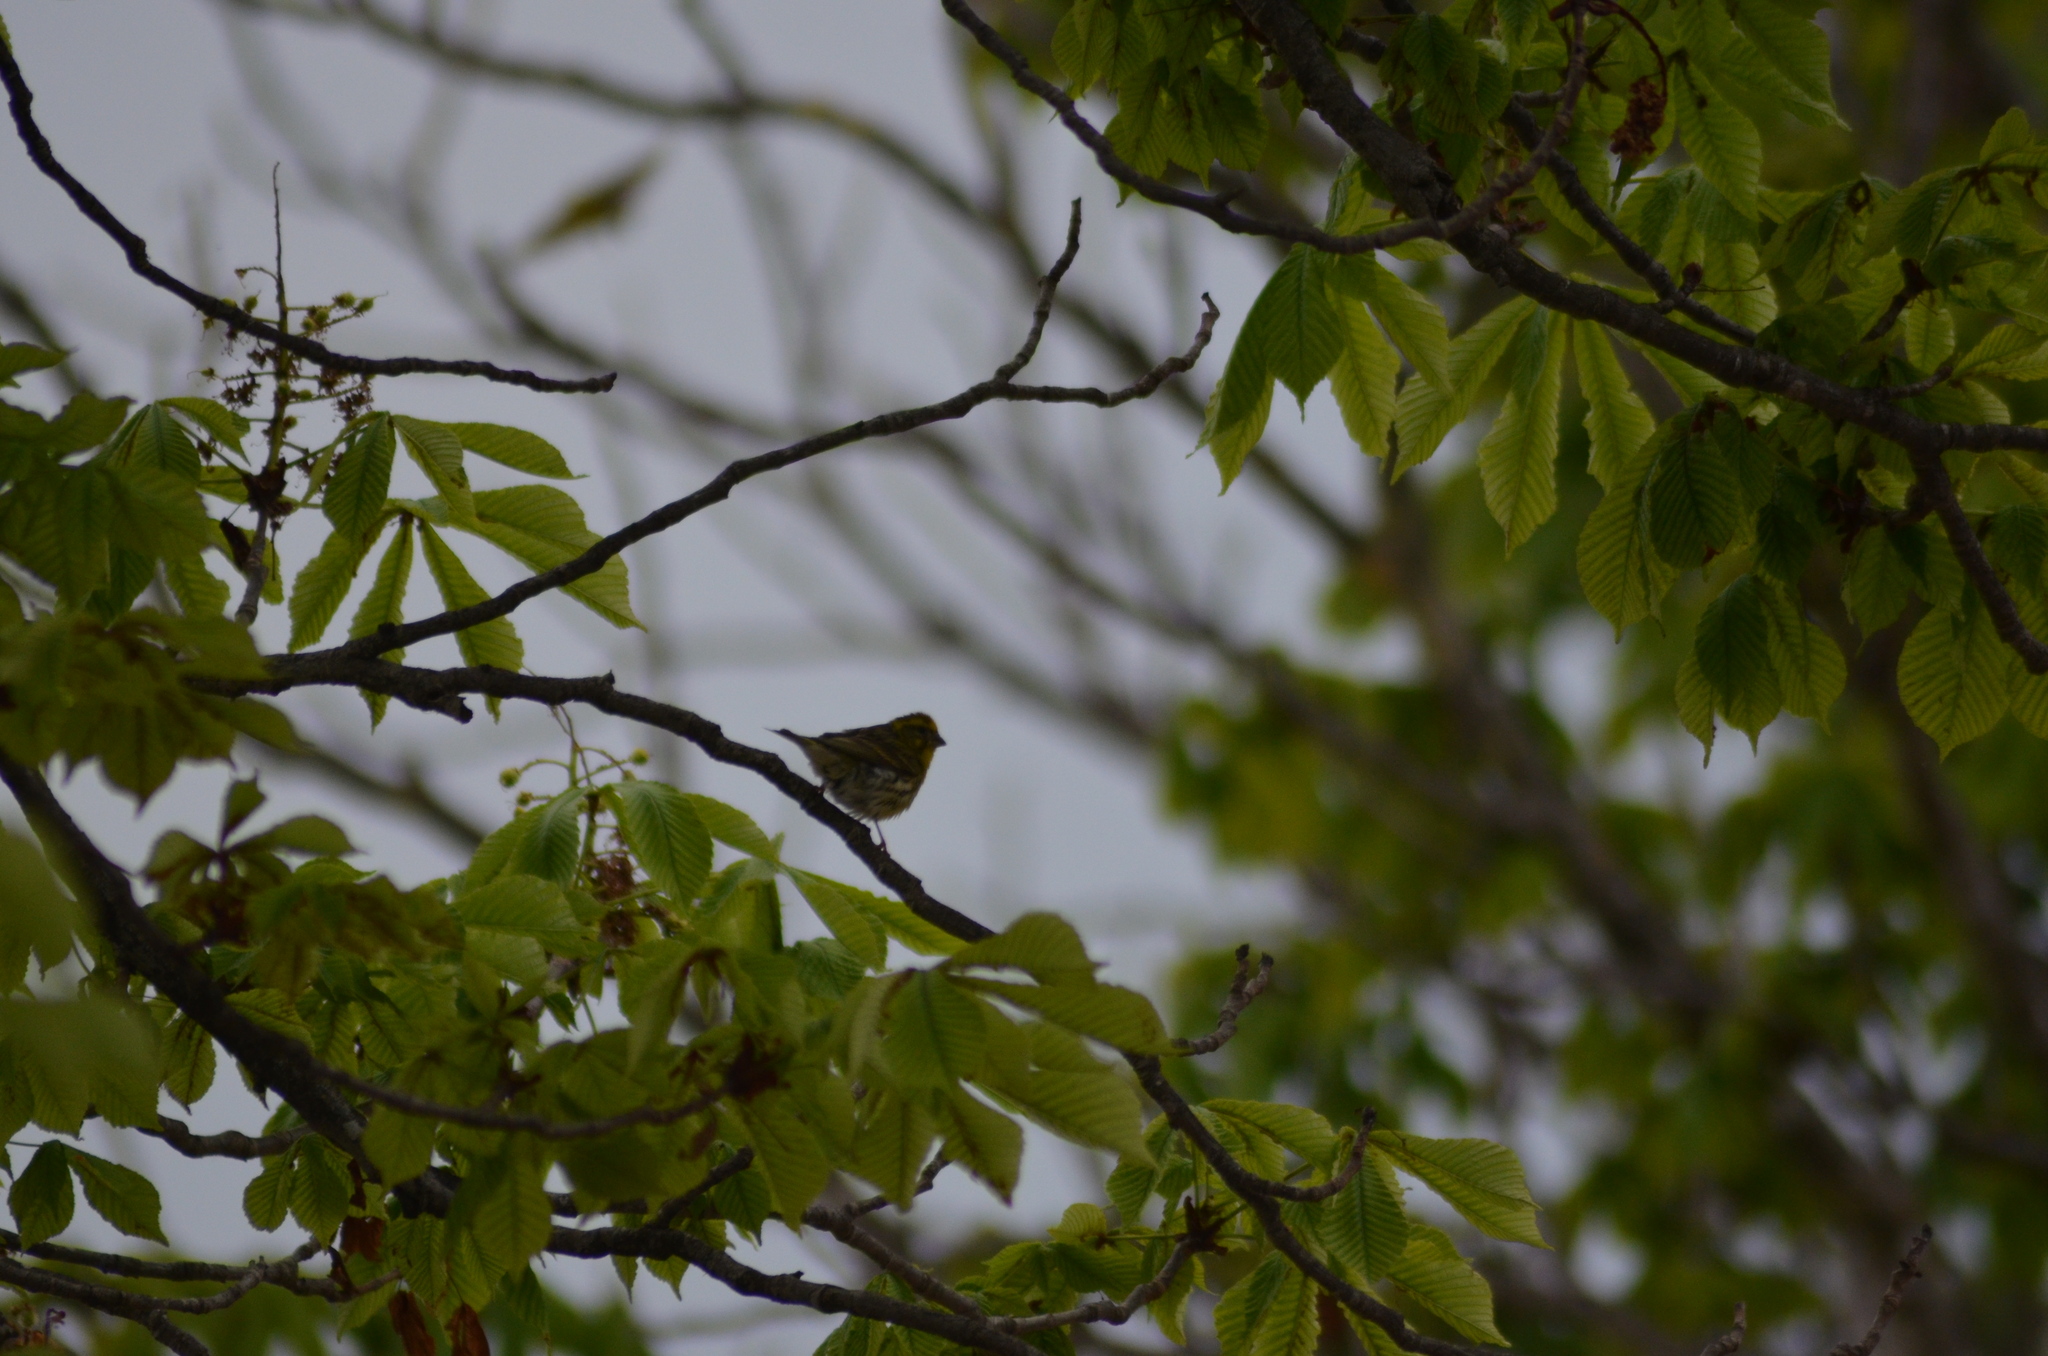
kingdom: Animalia
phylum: Chordata
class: Aves
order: Passeriformes
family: Fringillidae
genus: Serinus
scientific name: Serinus serinus
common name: European serin
